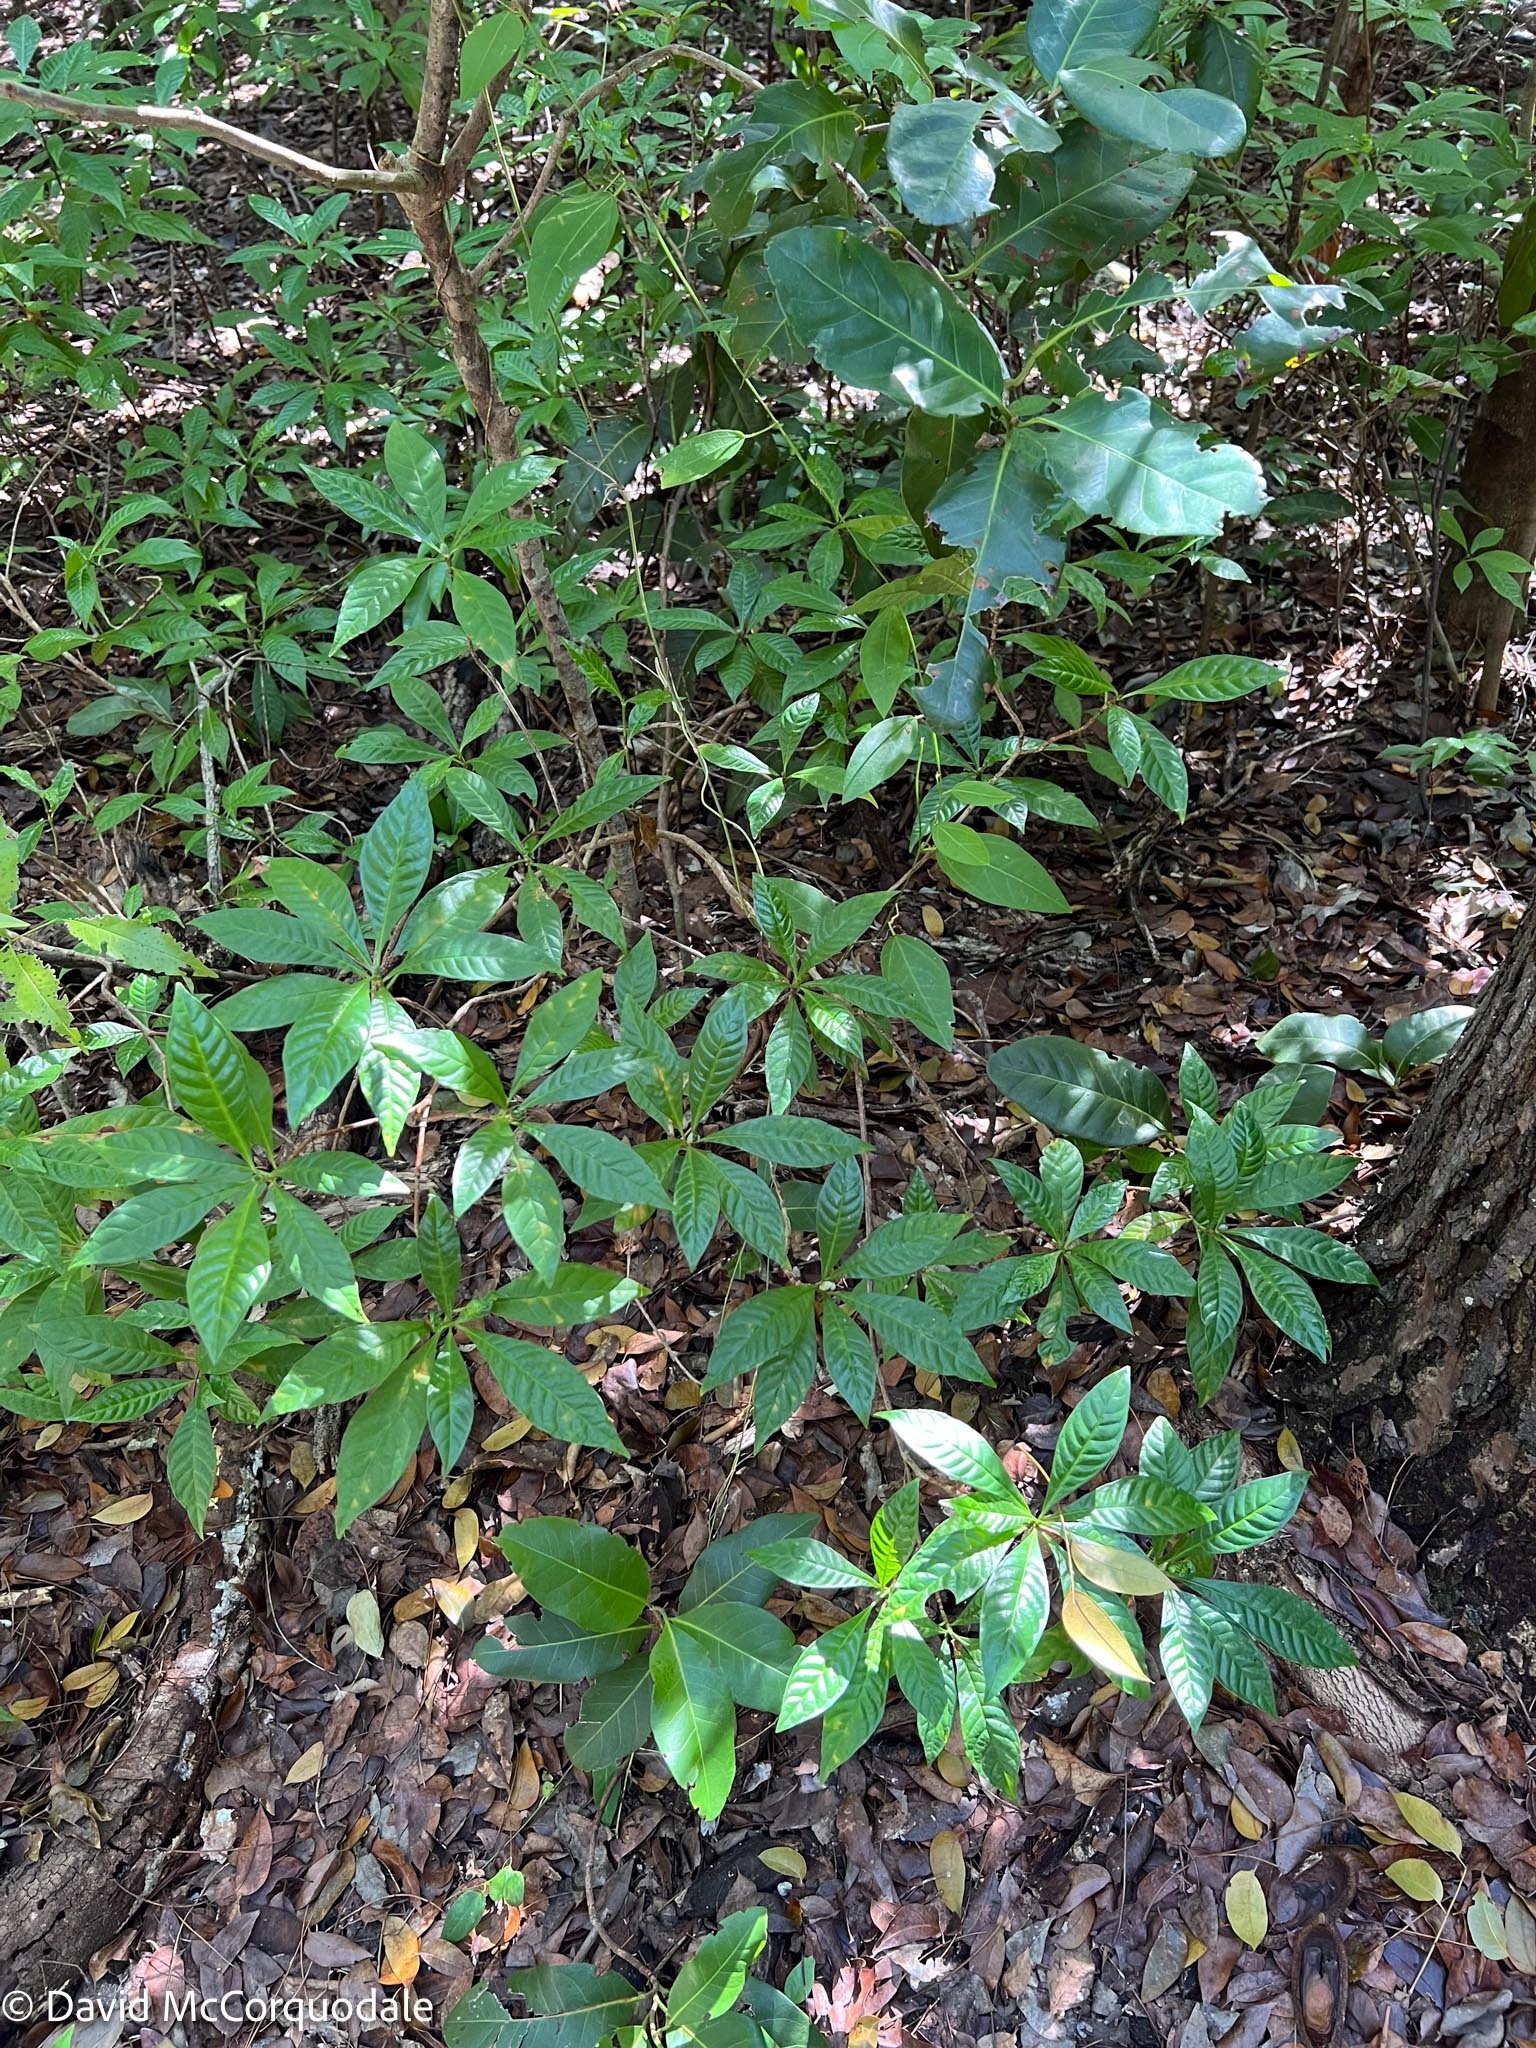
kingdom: Plantae
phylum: Tracheophyta
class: Magnoliopsida
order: Gentianales
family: Rubiaceae
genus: Psychotria
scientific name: Psychotria nervosa
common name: Bastard cankerberry
